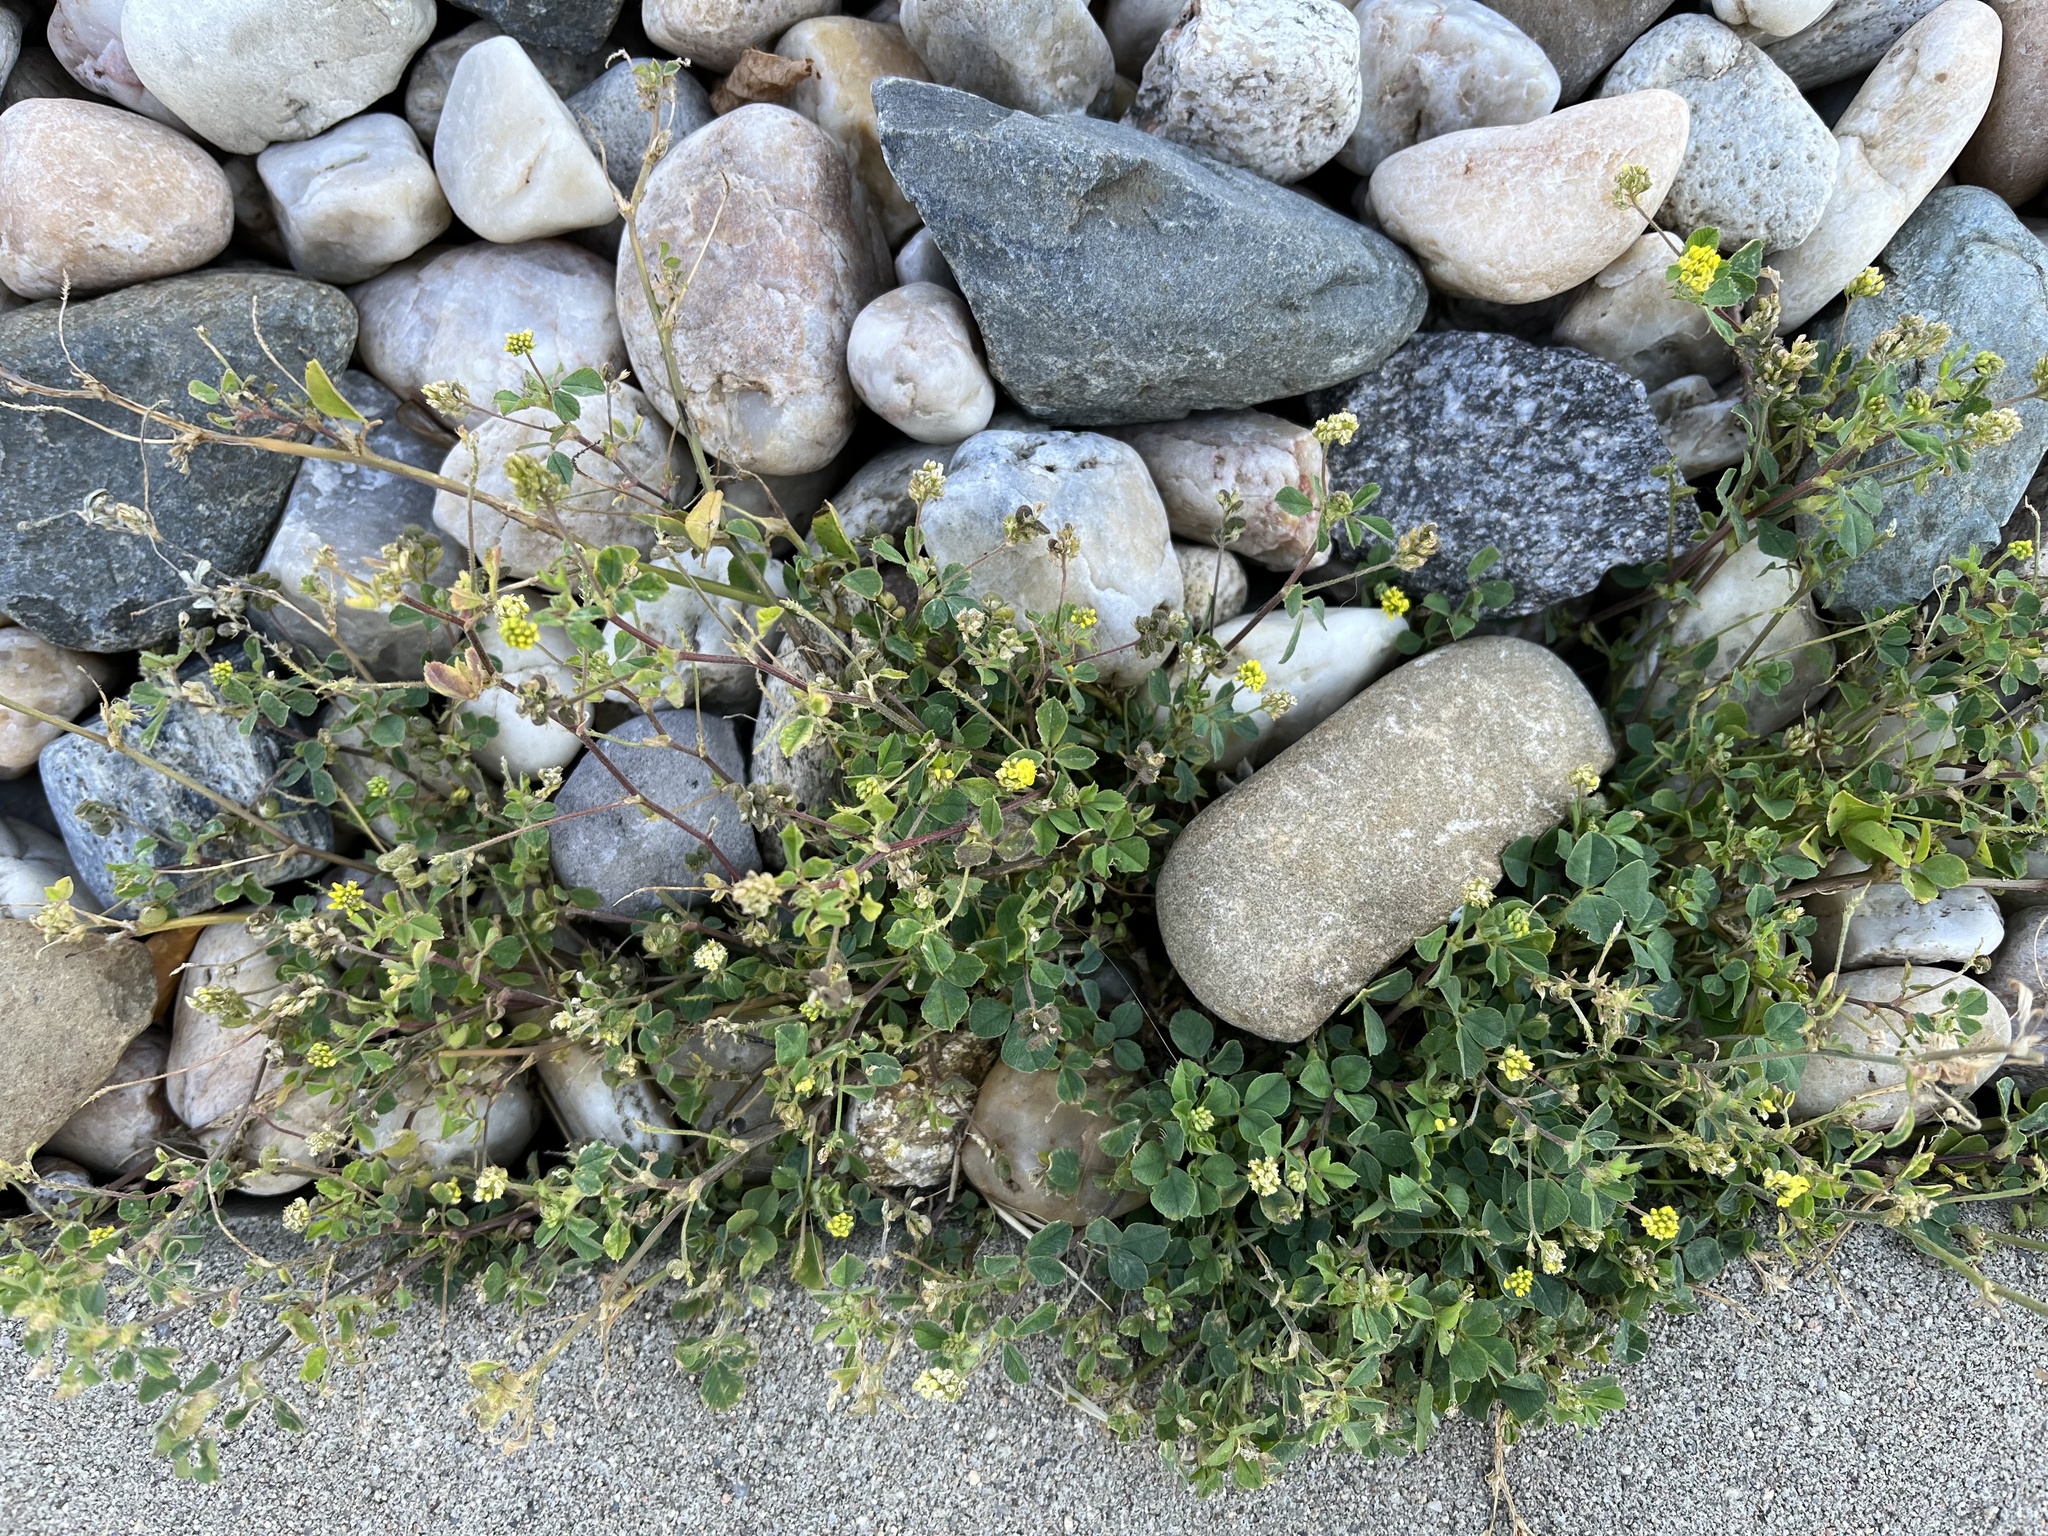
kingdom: Plantae
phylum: Tracheophyta
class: Magnoliopsida
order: Fabales
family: Fabaceae
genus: Medicago
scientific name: Medicago lupulina
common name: Black medick
